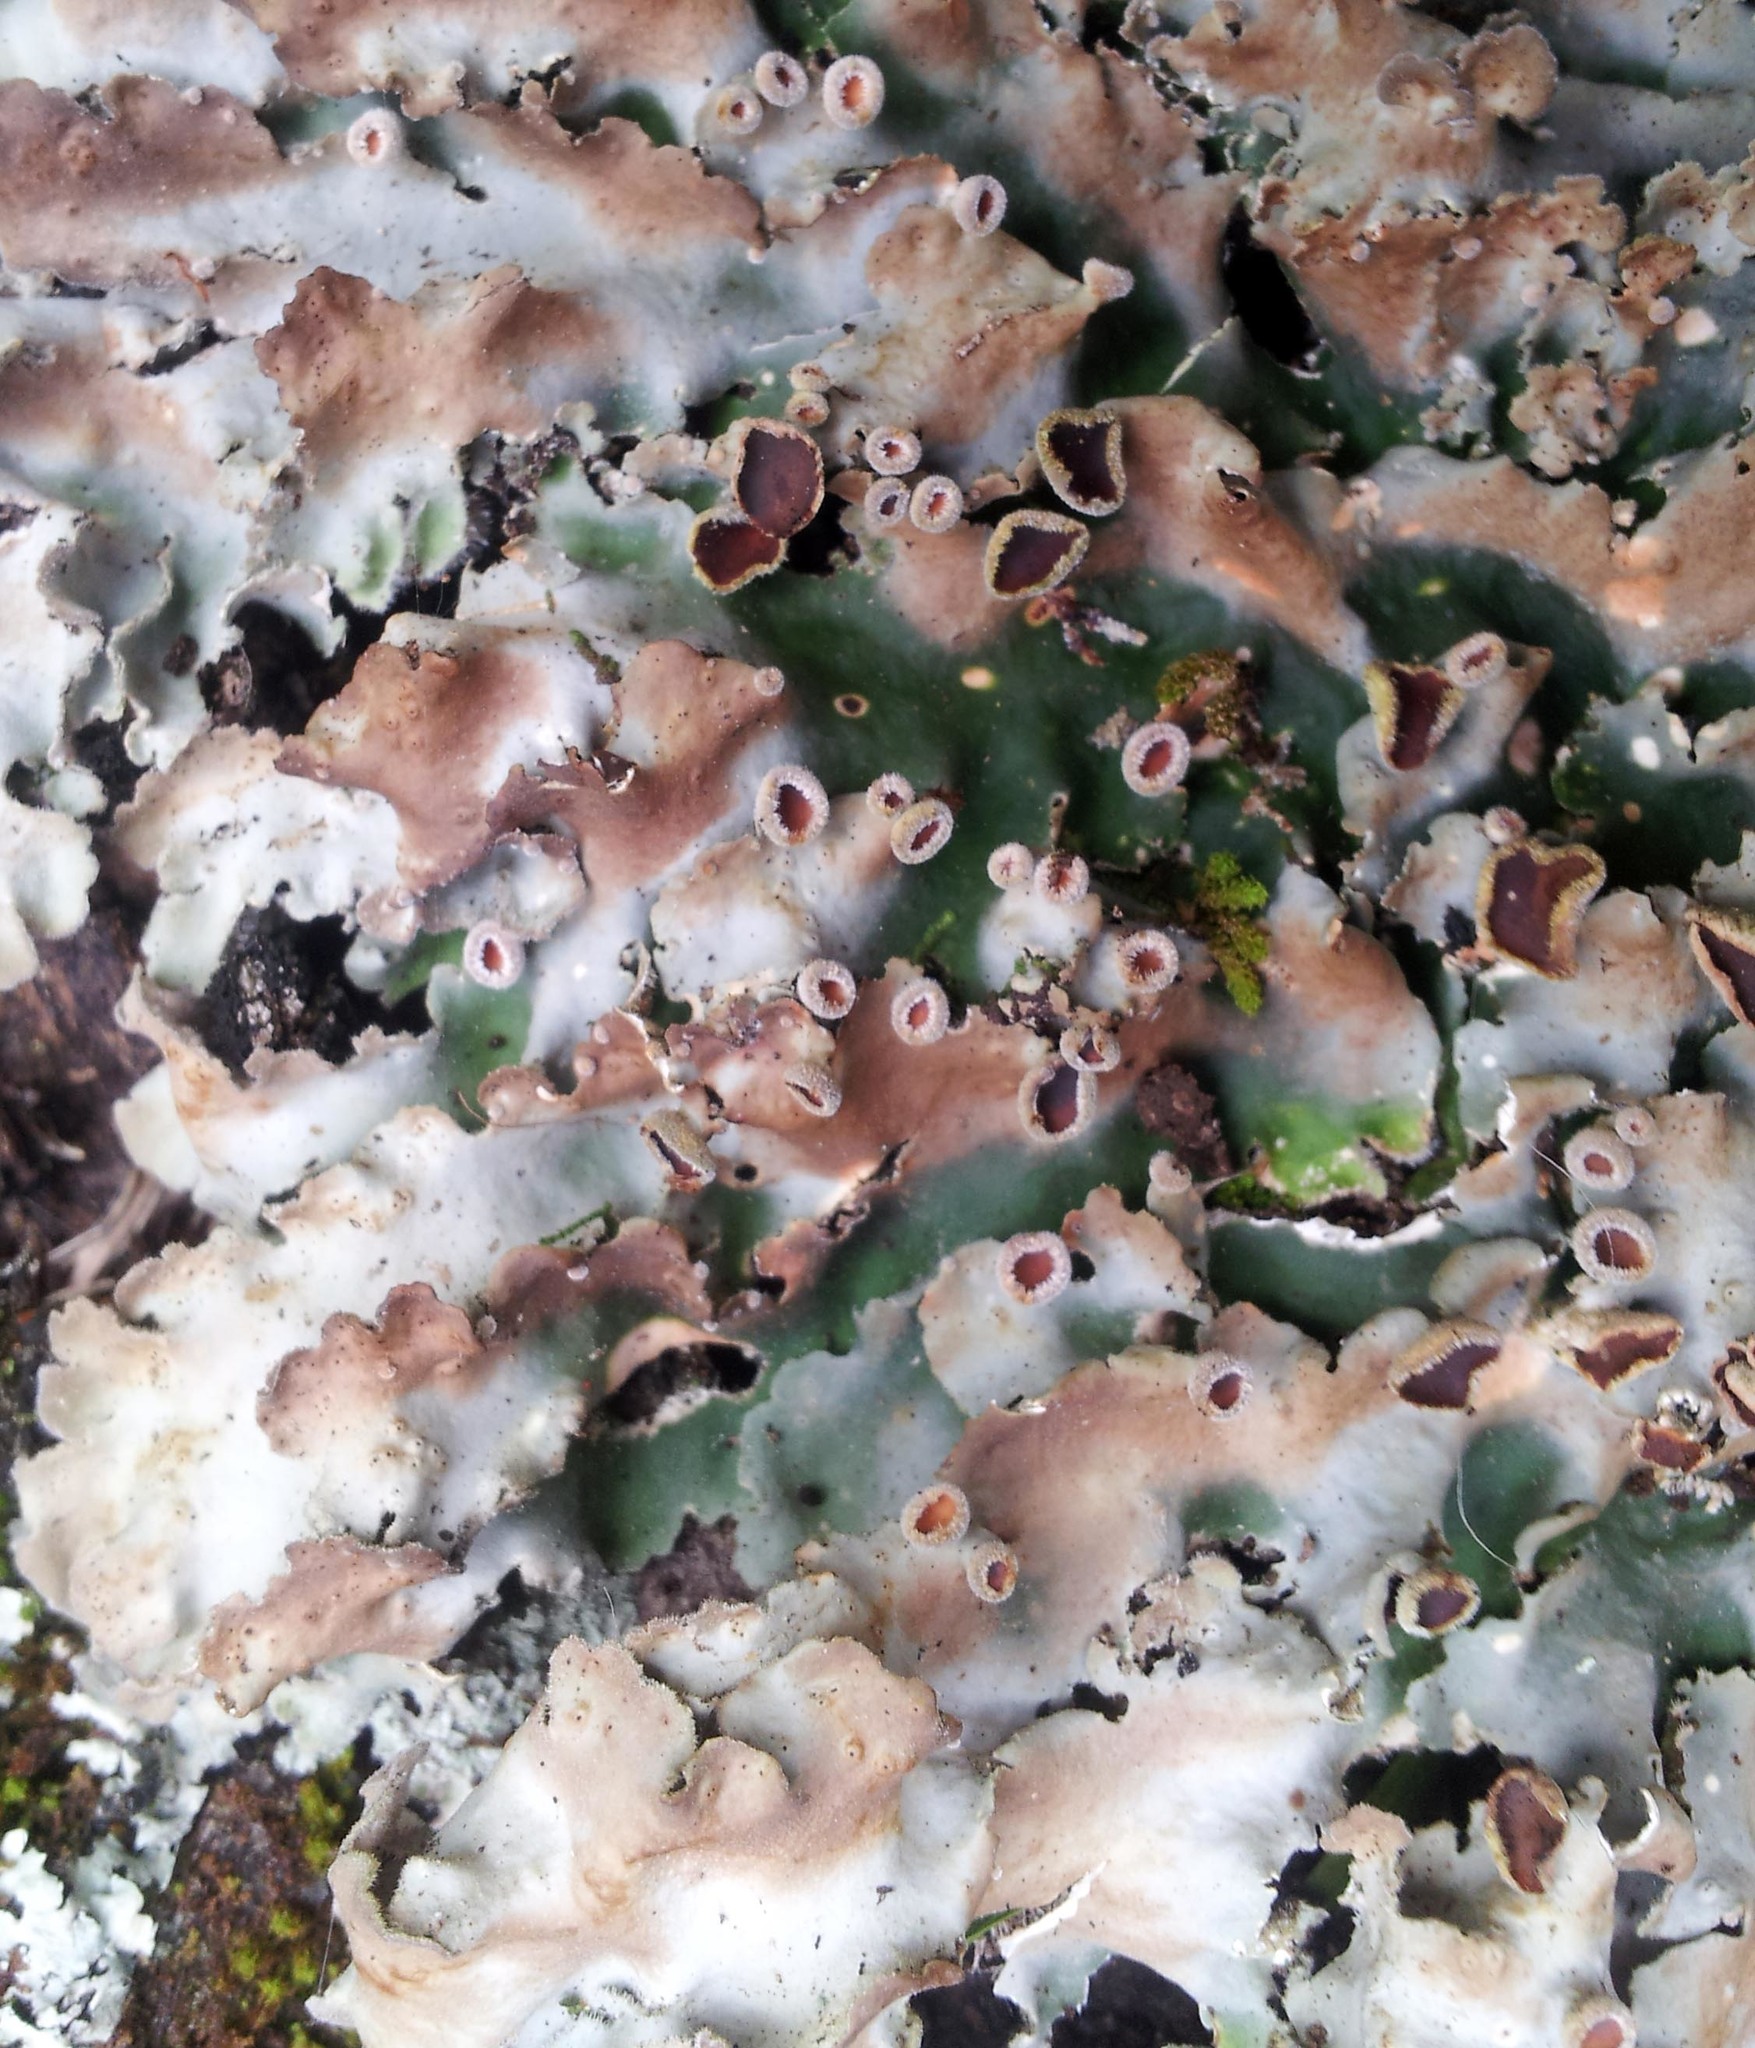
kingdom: Fungi
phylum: Ascomycota
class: Lecanoromycetes
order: Peltigerales
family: Lobariaceae
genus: Pseudocyphellaria
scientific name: Pseudocyphellaria coriacea
